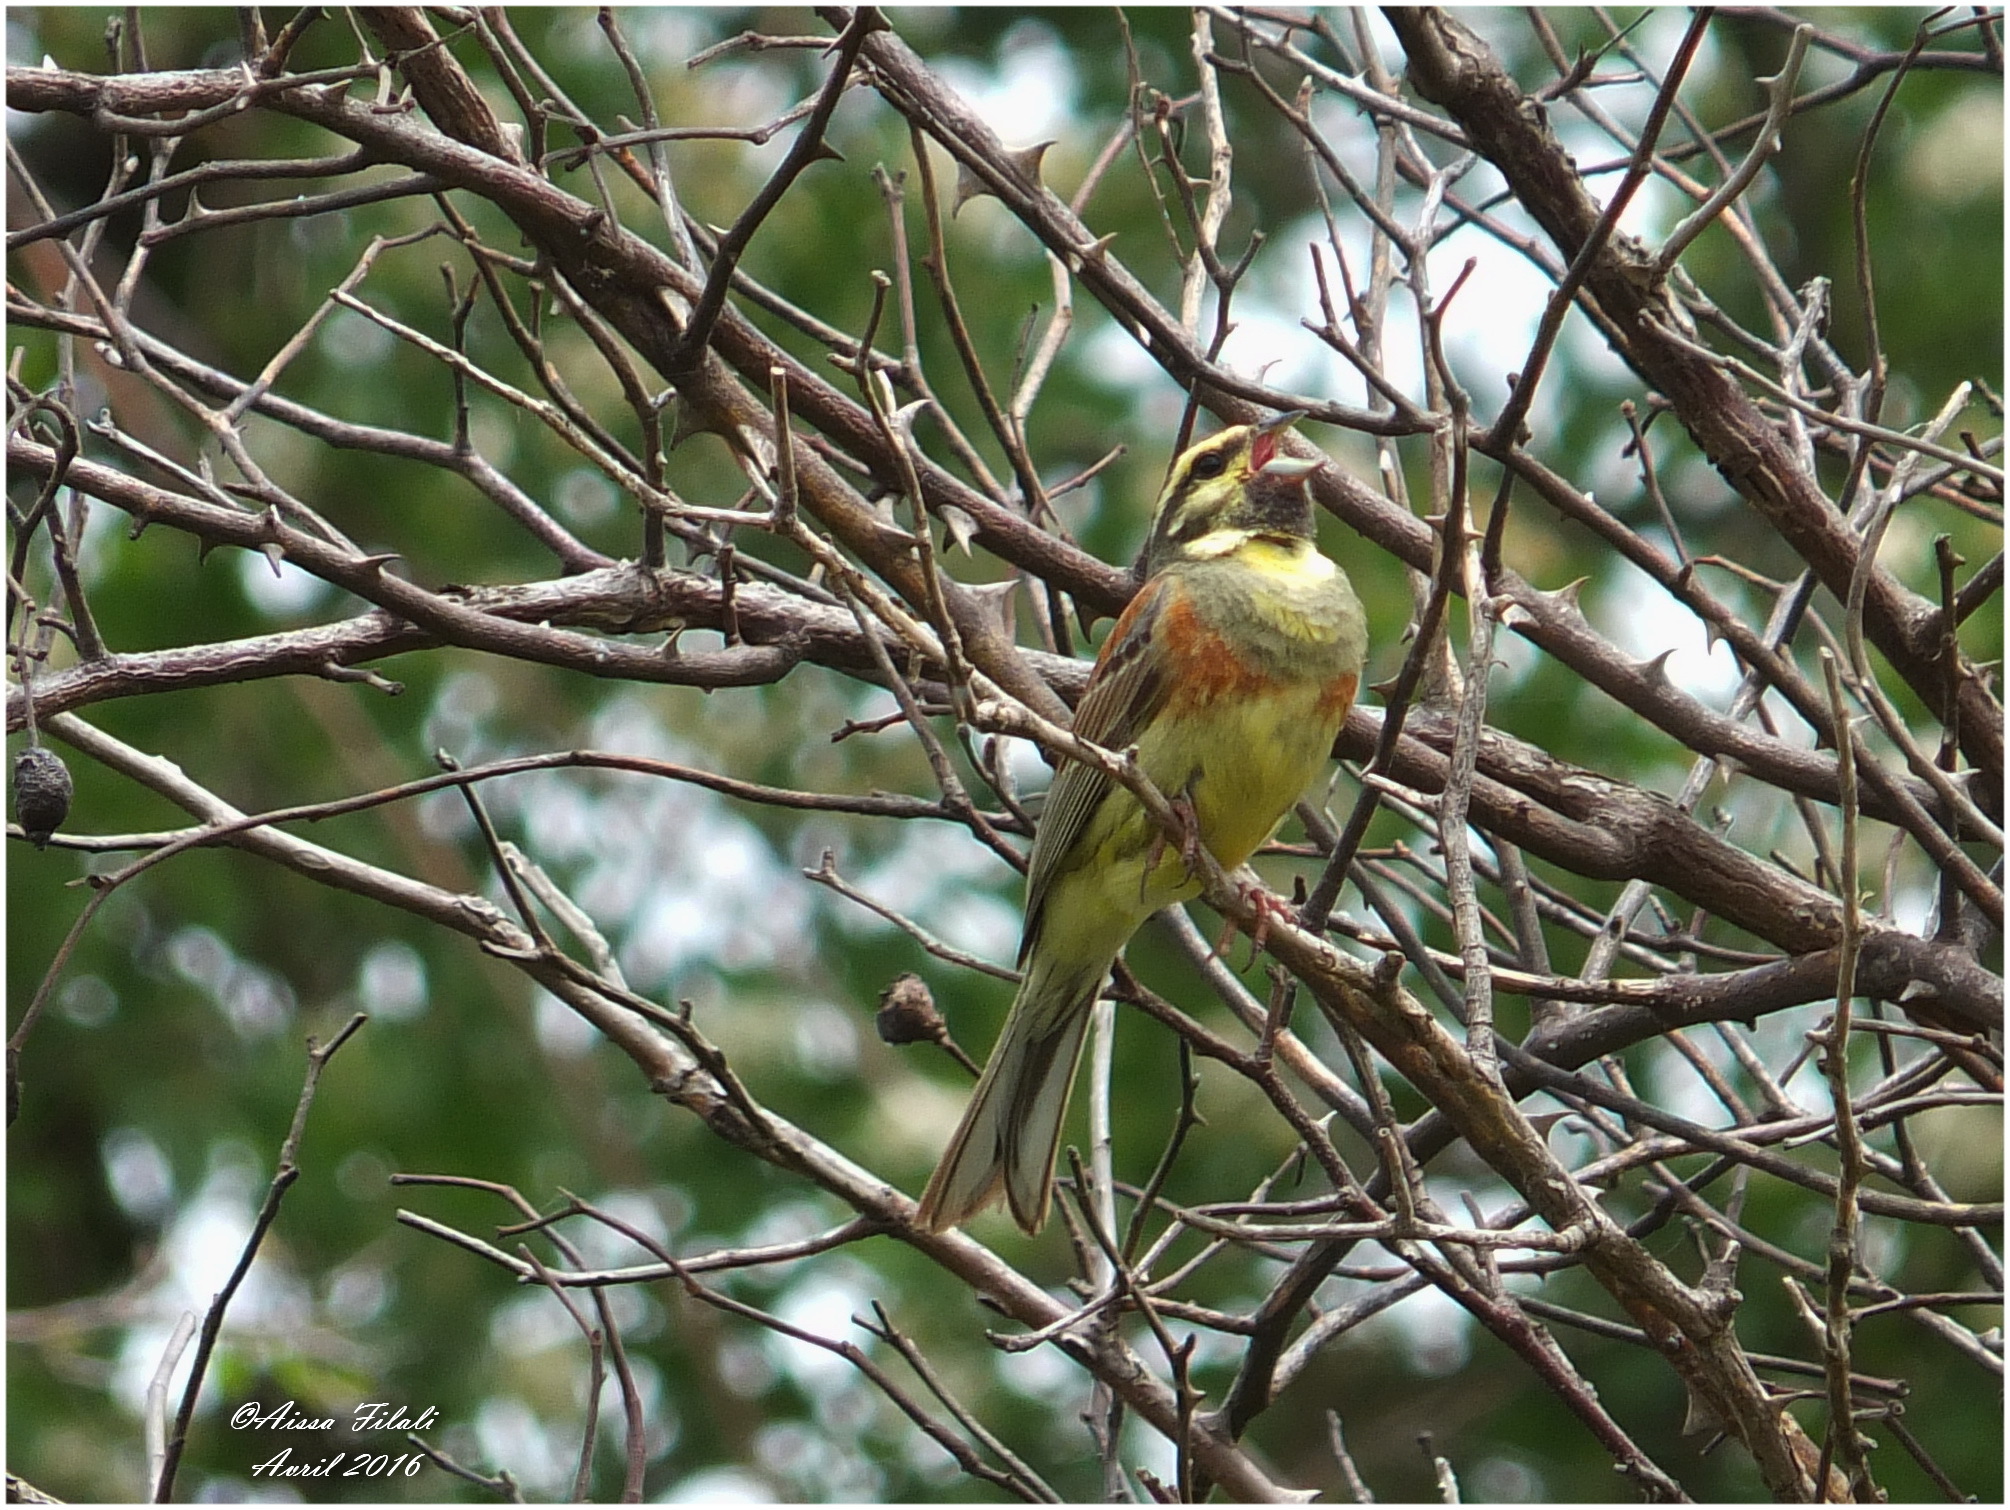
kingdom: Animalia
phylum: Chordata
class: Aves
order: Passeriformes
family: Emberizidae
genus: Emberiza
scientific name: Emberiza cirlus
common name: Cirl bunting
